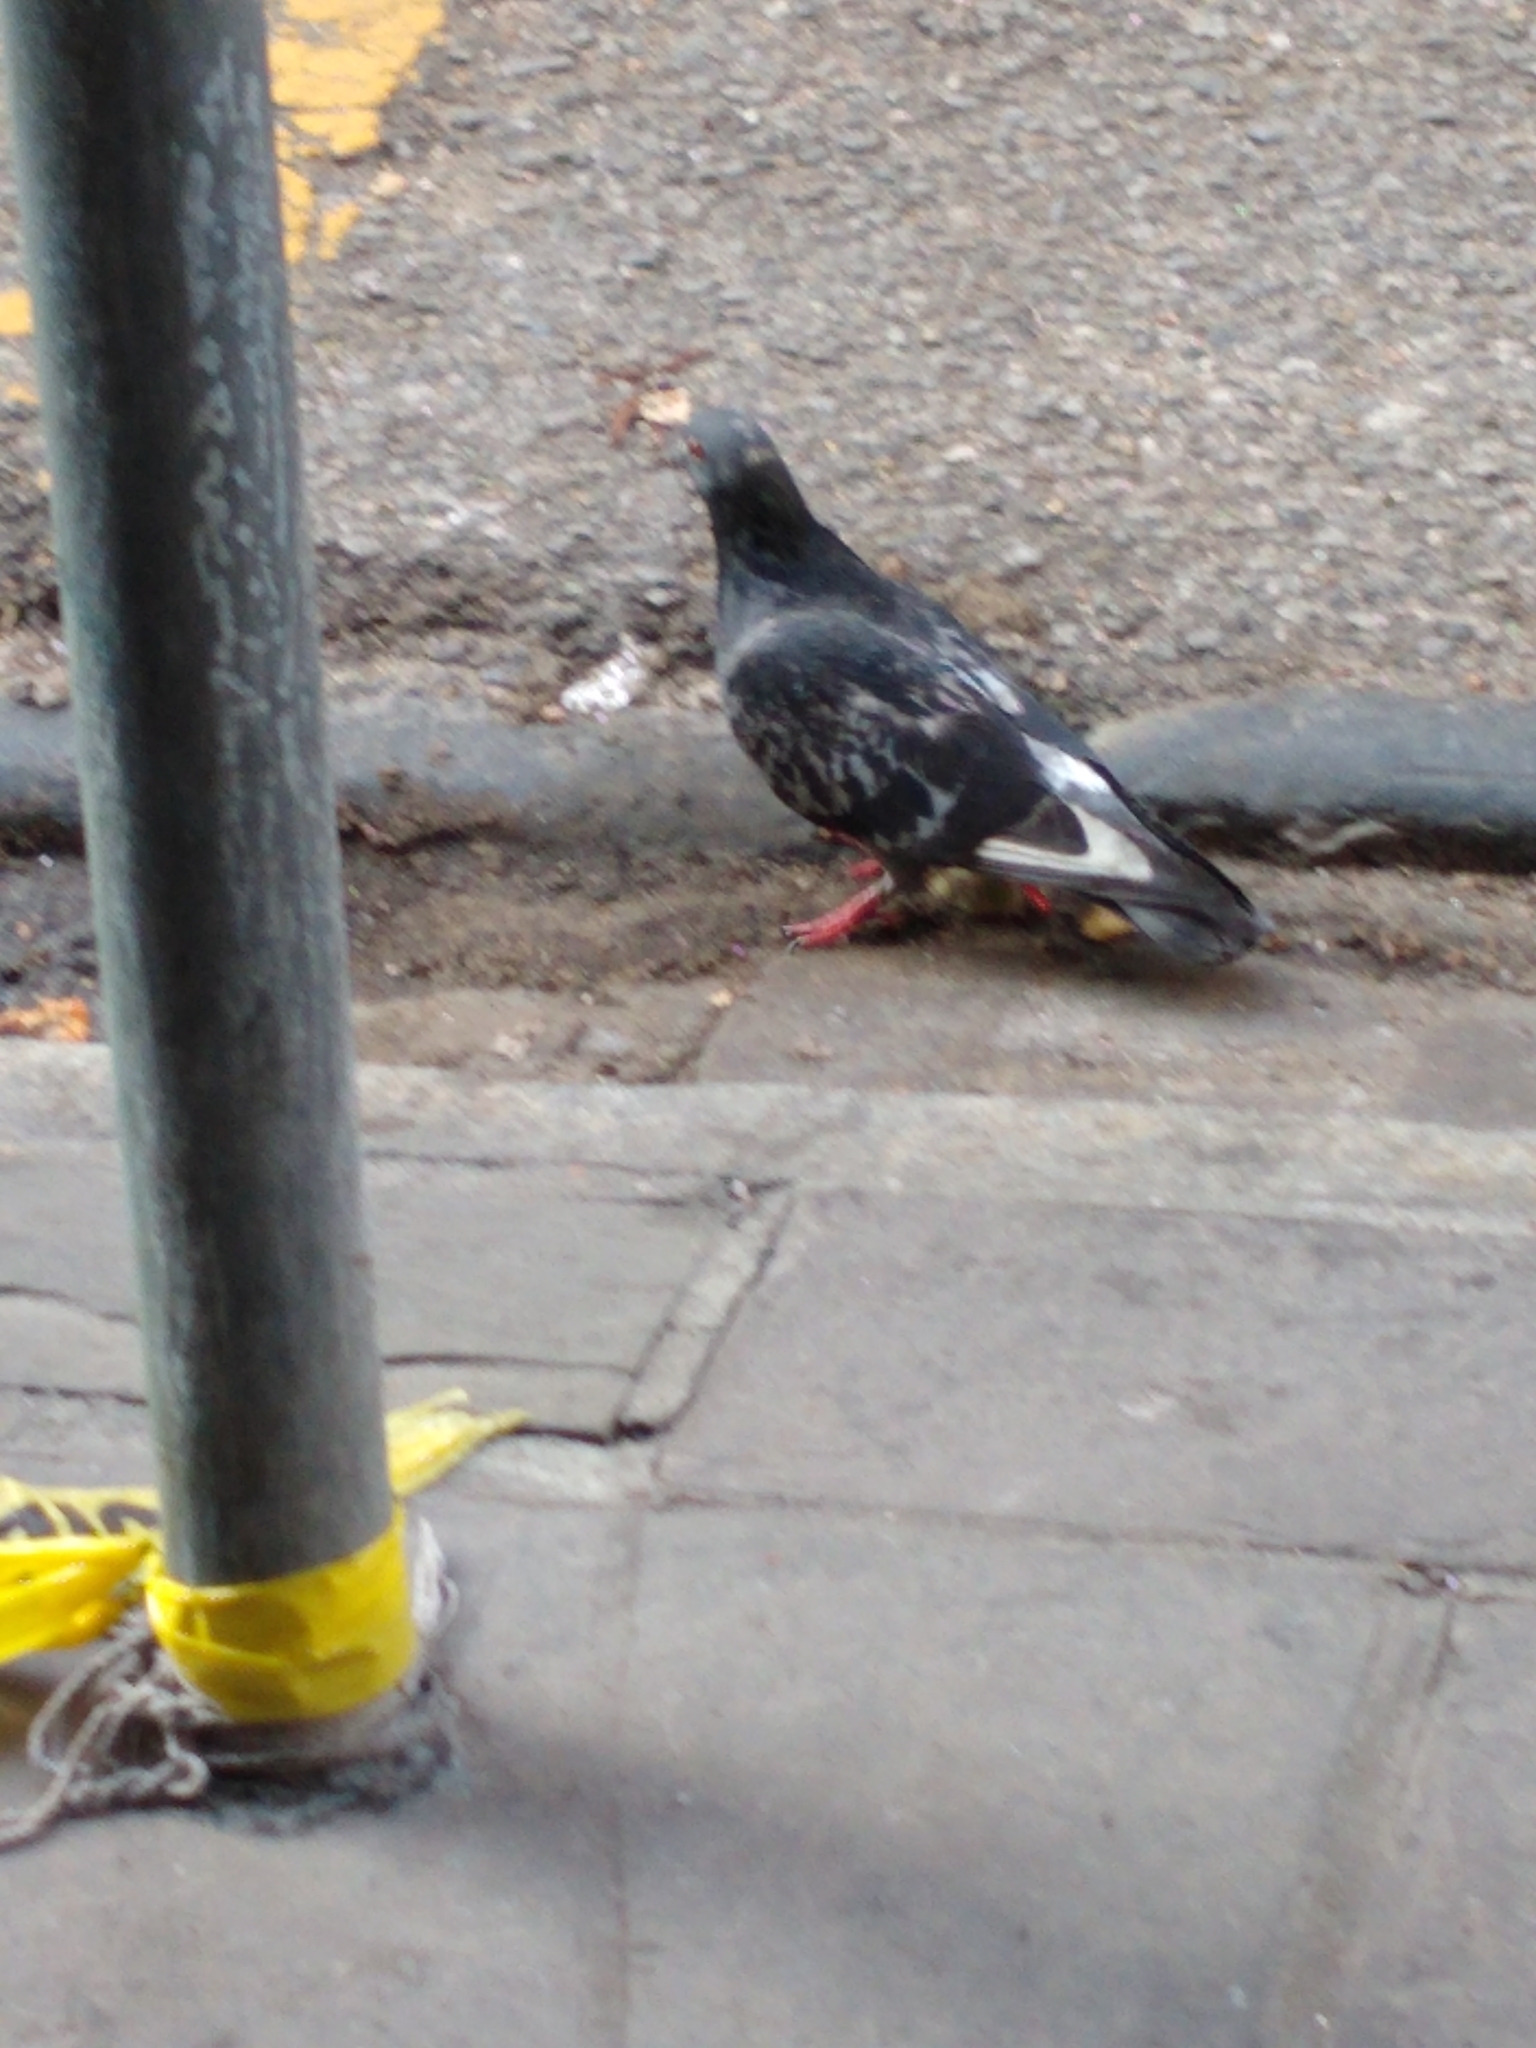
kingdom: Animalia
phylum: Chordata
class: Aves
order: Columbiformes
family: Columbidae
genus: Columba
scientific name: Columba livia
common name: Rock pigeon
